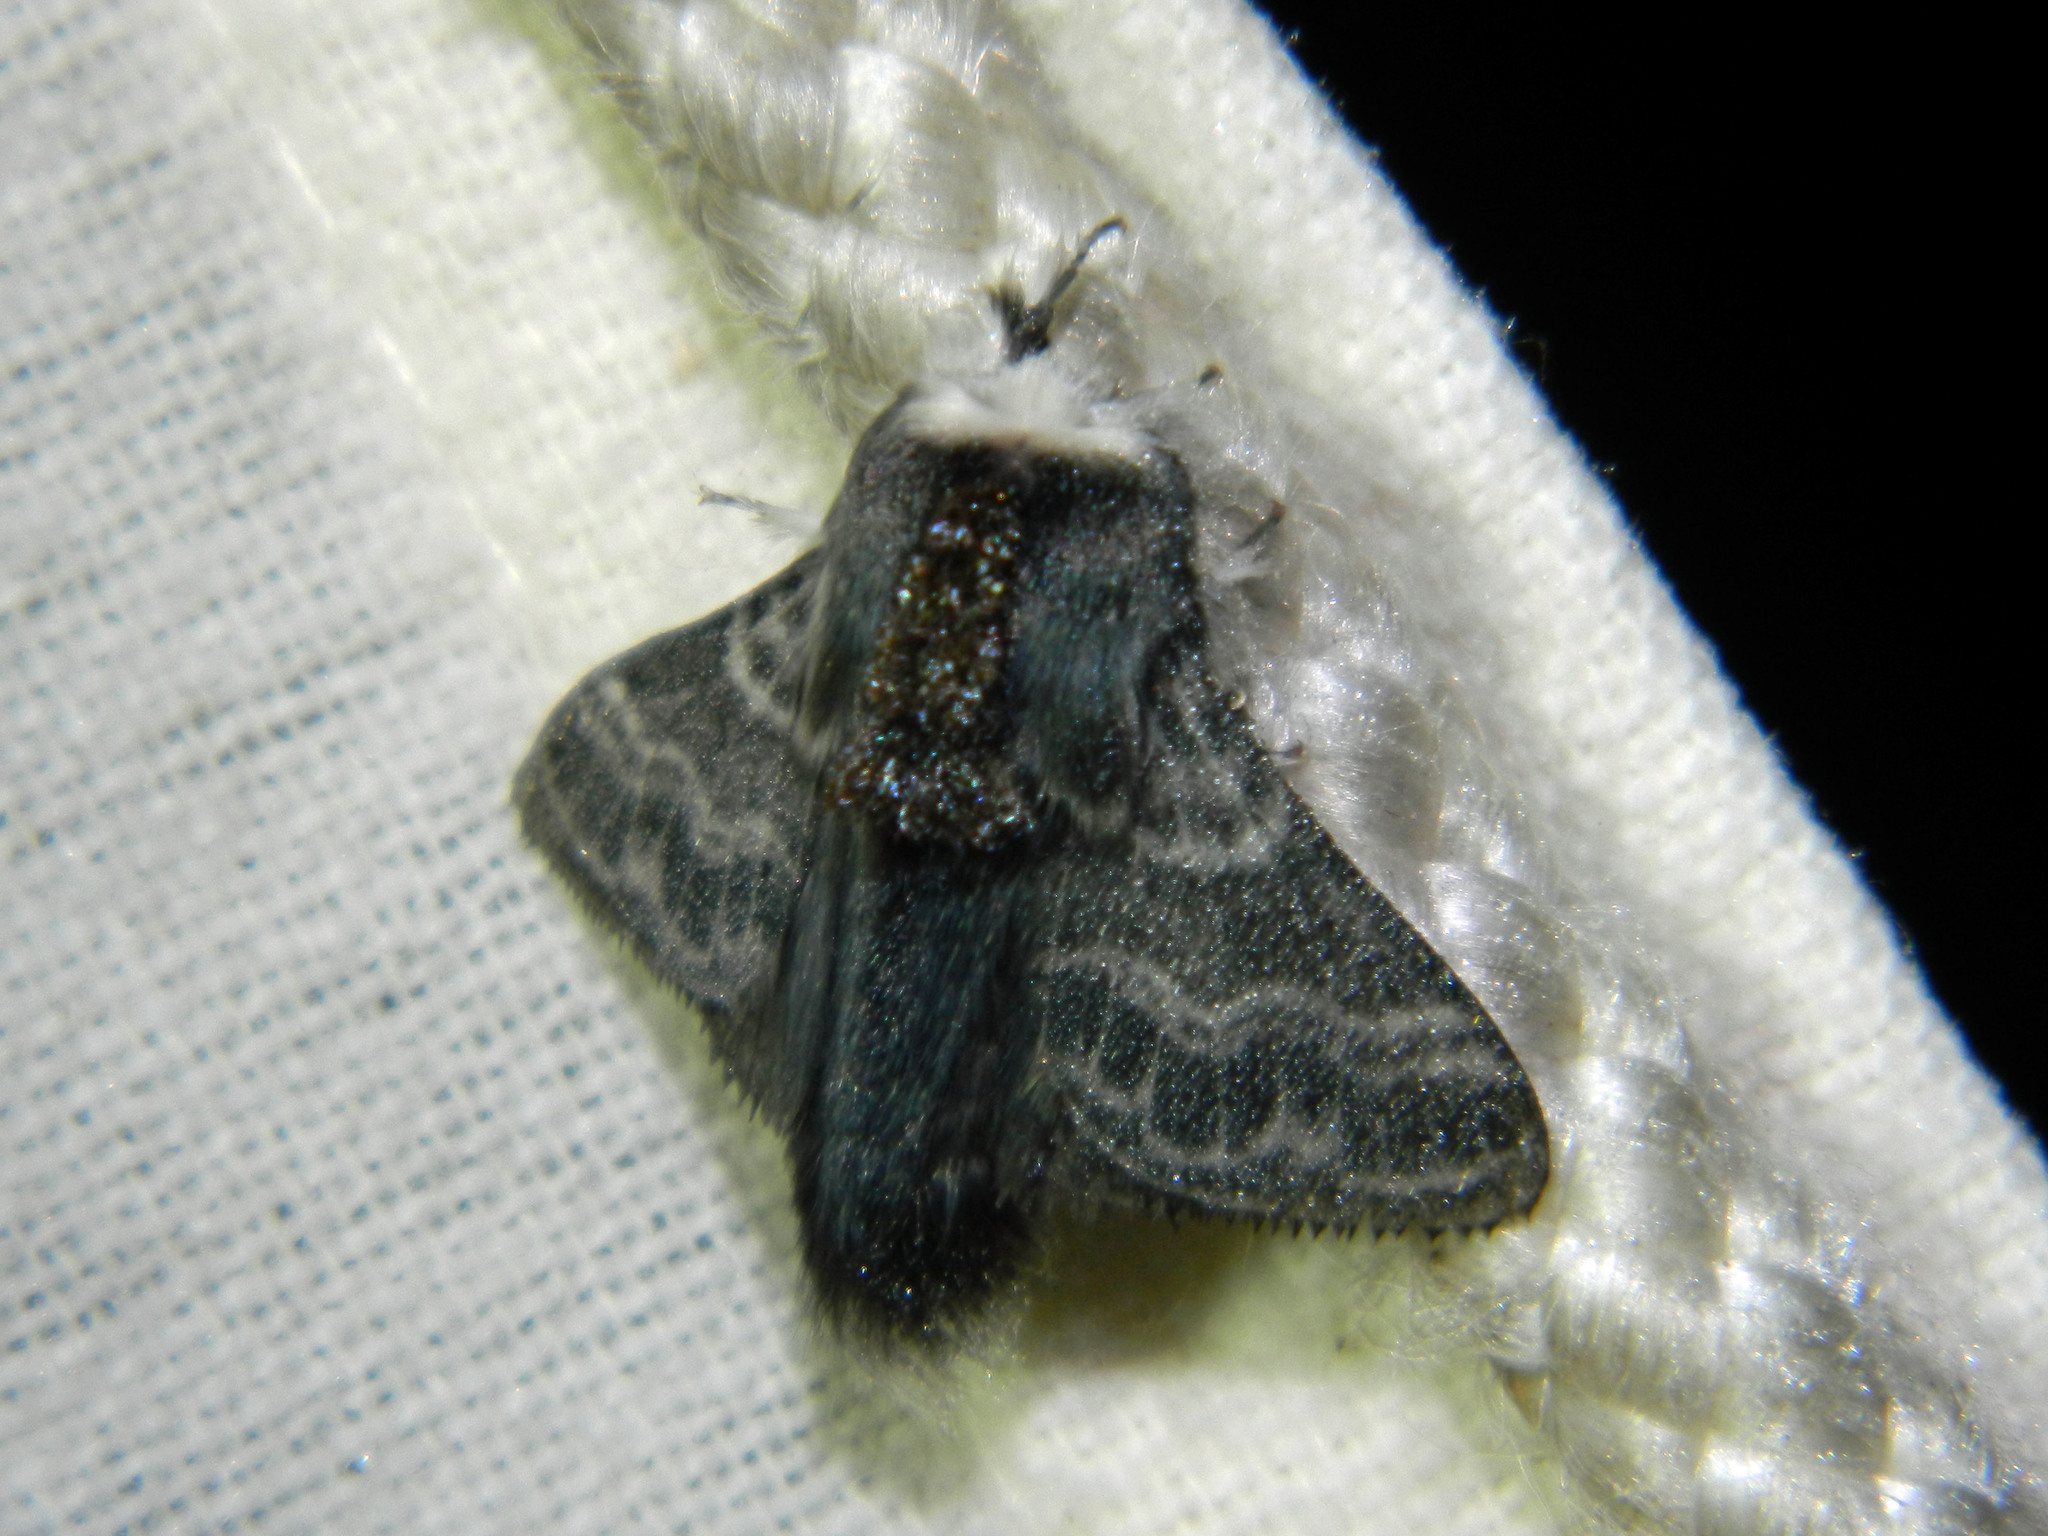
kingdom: Animalia
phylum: Arthropoda
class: Insecta
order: Lepidoptera
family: Lasiocampidae
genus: Tolype
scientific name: Tolype laricis
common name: Larch tolype moth
